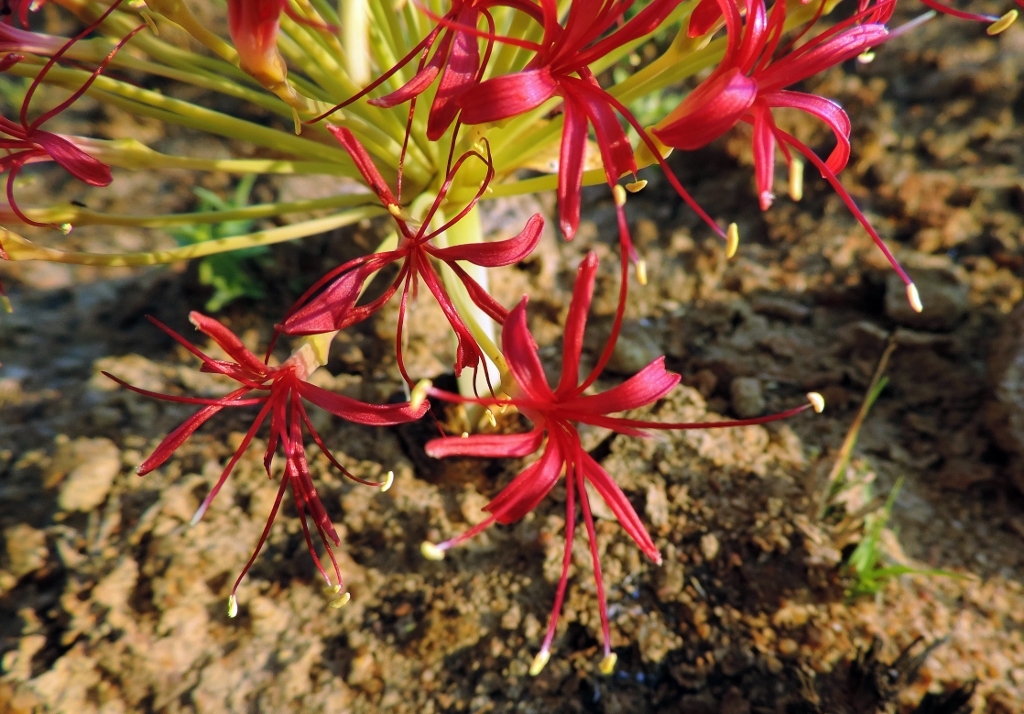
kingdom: Plantae
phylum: Tracheophyta
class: Liliopsida
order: Asparagales
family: Amaryllidaceae
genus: Boophone
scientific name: Boophone disticha
